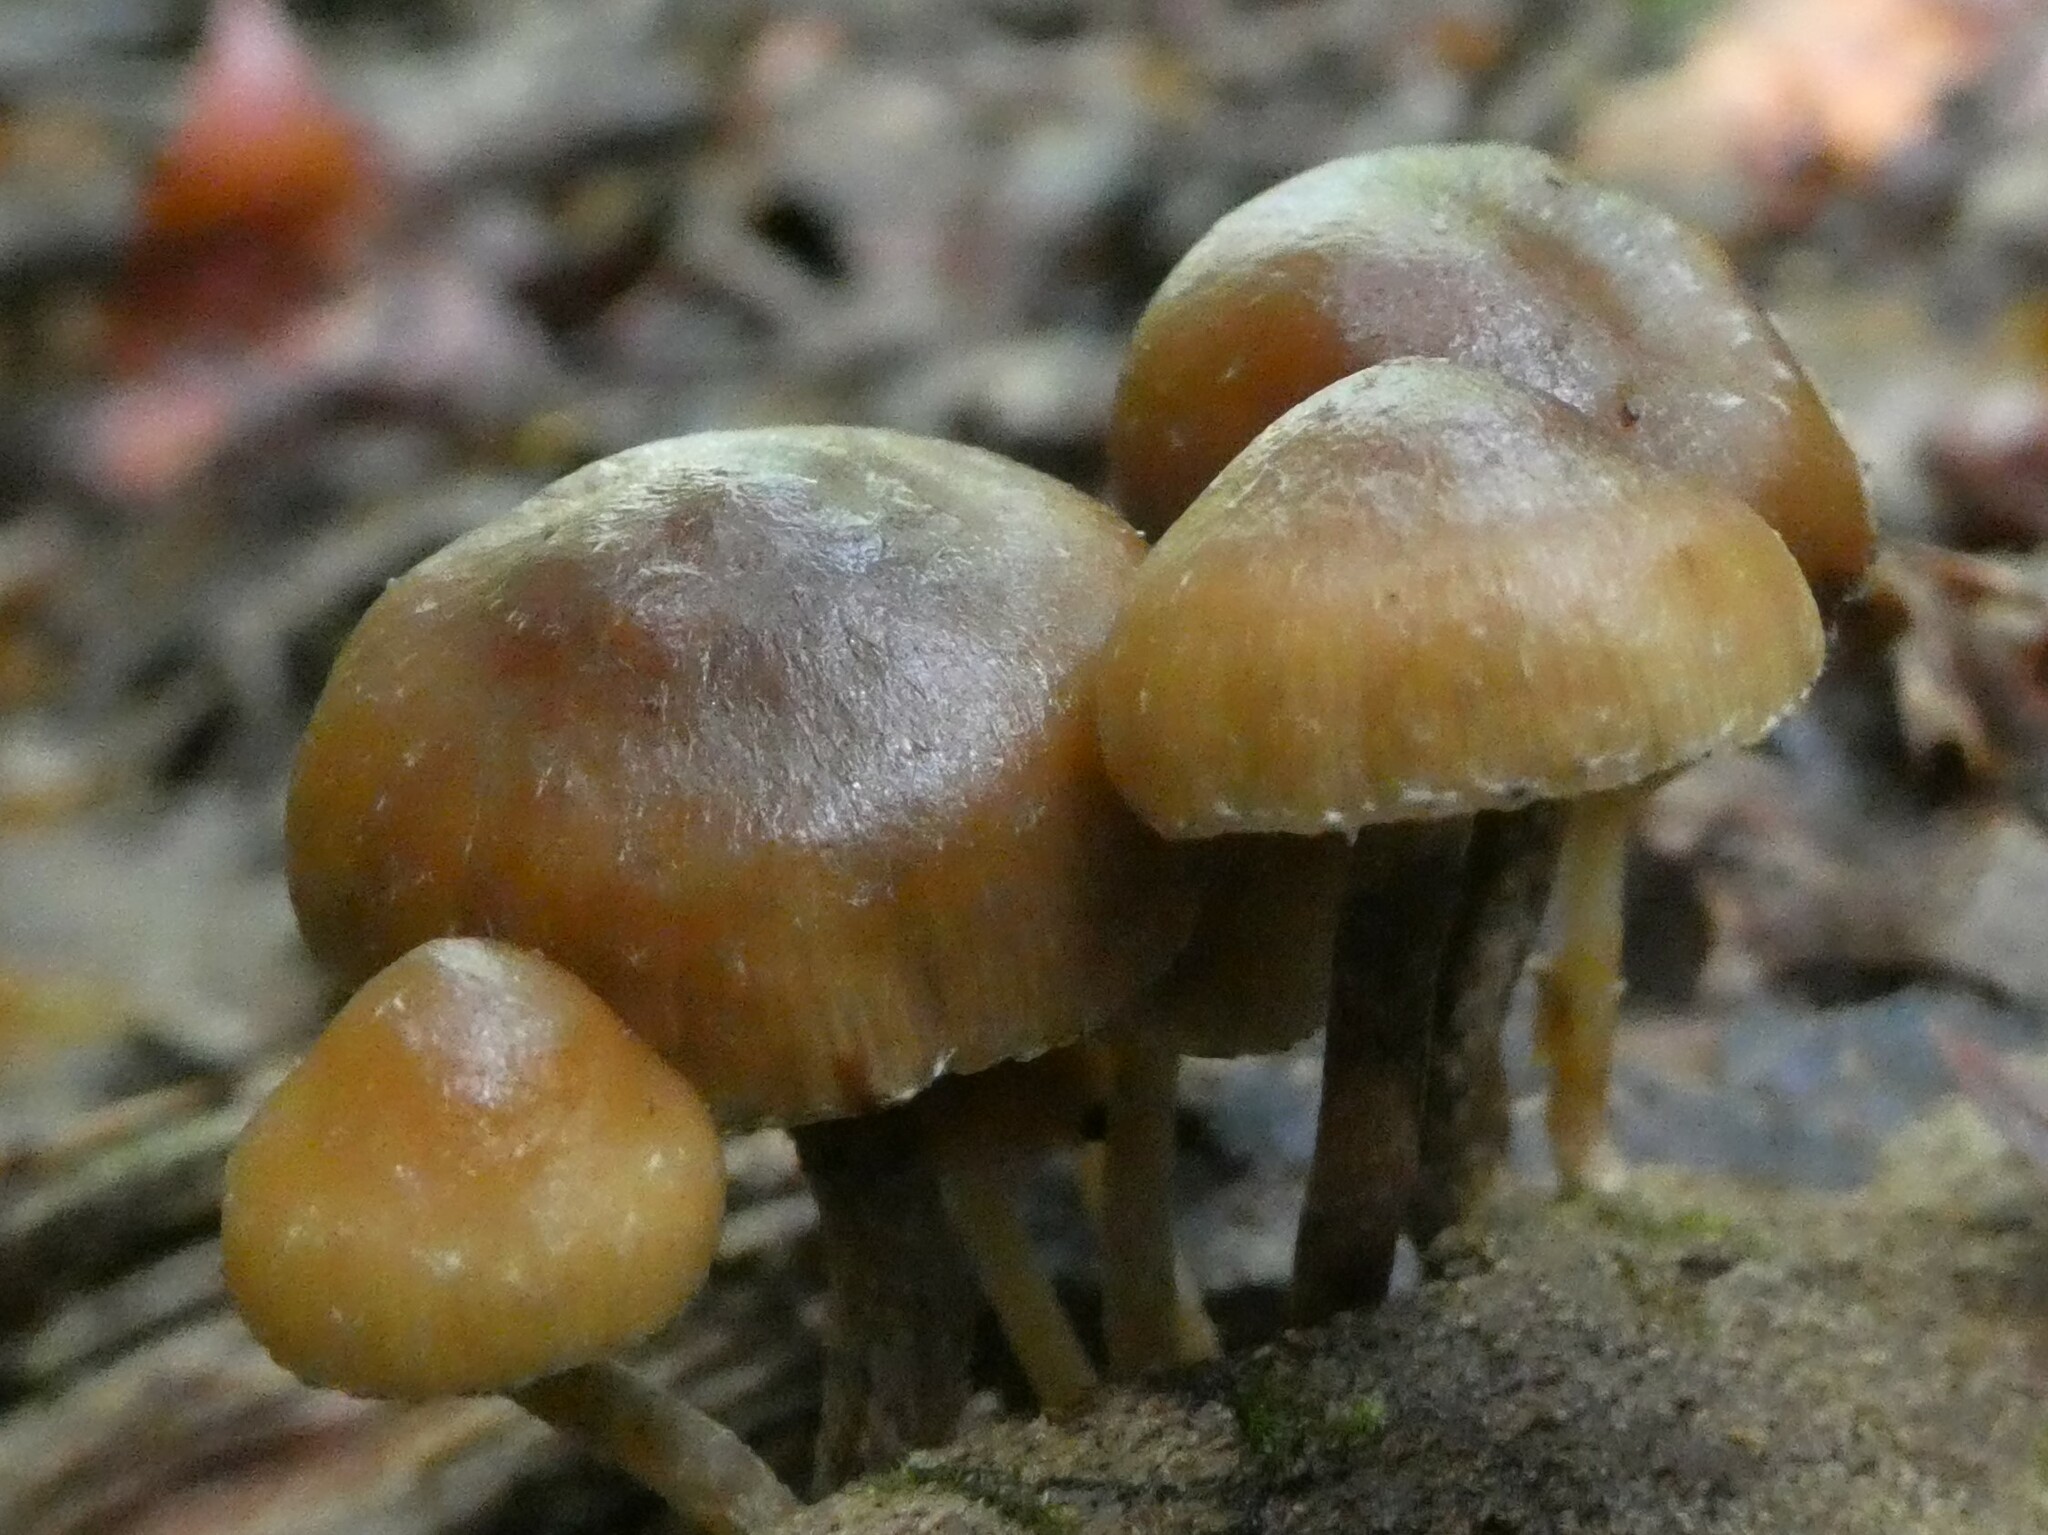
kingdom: Fungi
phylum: Basidiomycota
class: Agaricomycetes
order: Agaricales
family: Hymenogastraceae
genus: Psilocybe
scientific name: Psilocybe caerulipes
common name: Blue-foot
